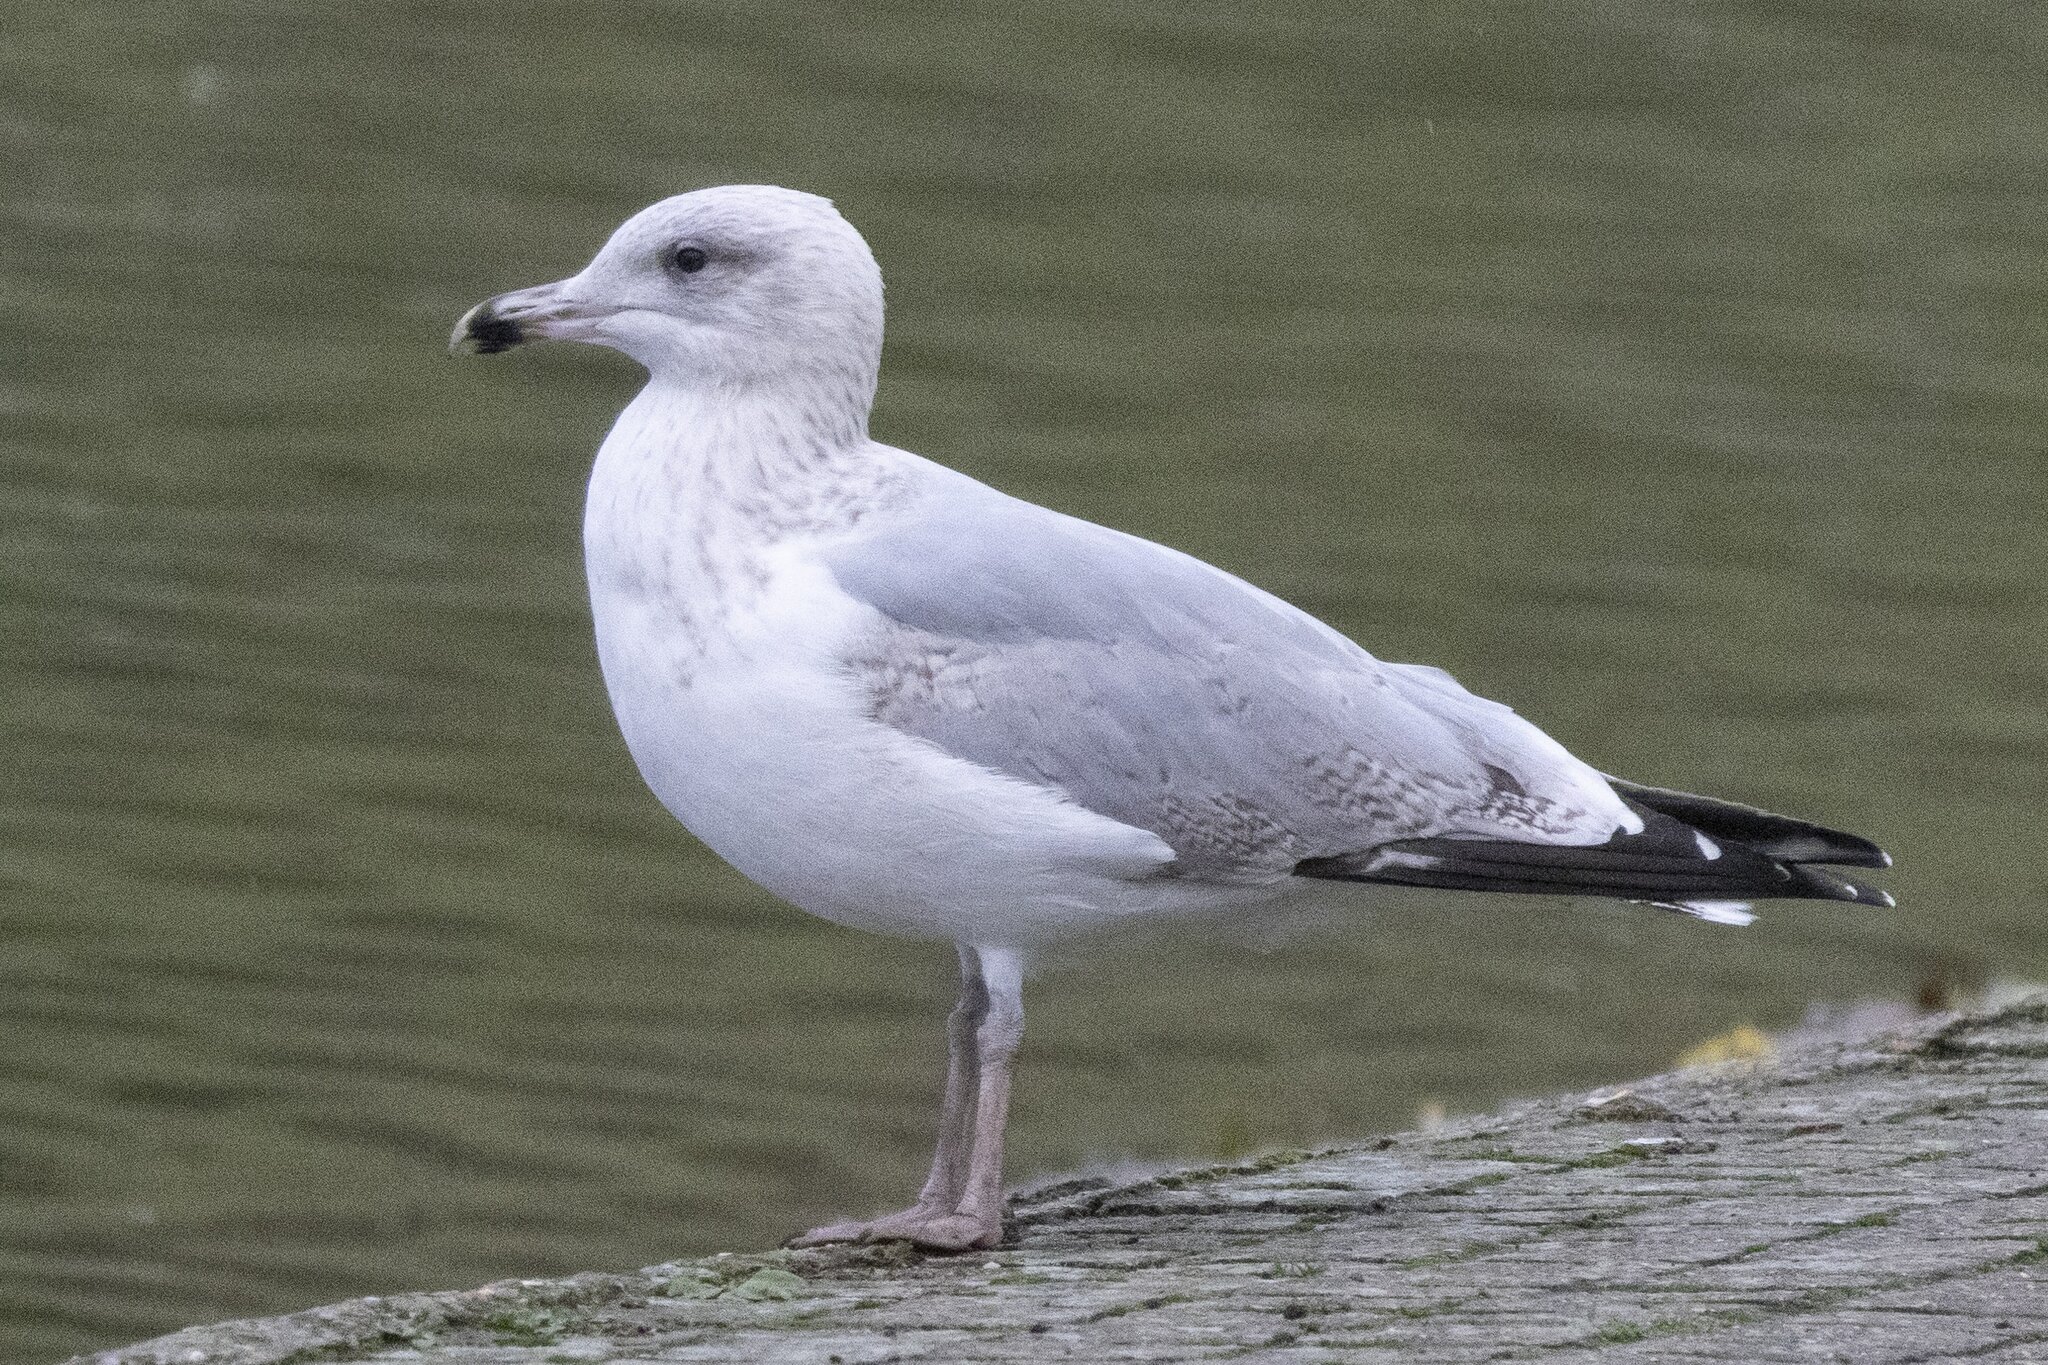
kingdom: Animalia
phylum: Chordata
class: Aves
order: Charadriiformes
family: Laridae
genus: Larus
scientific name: Larus argentatus
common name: Herring gull
